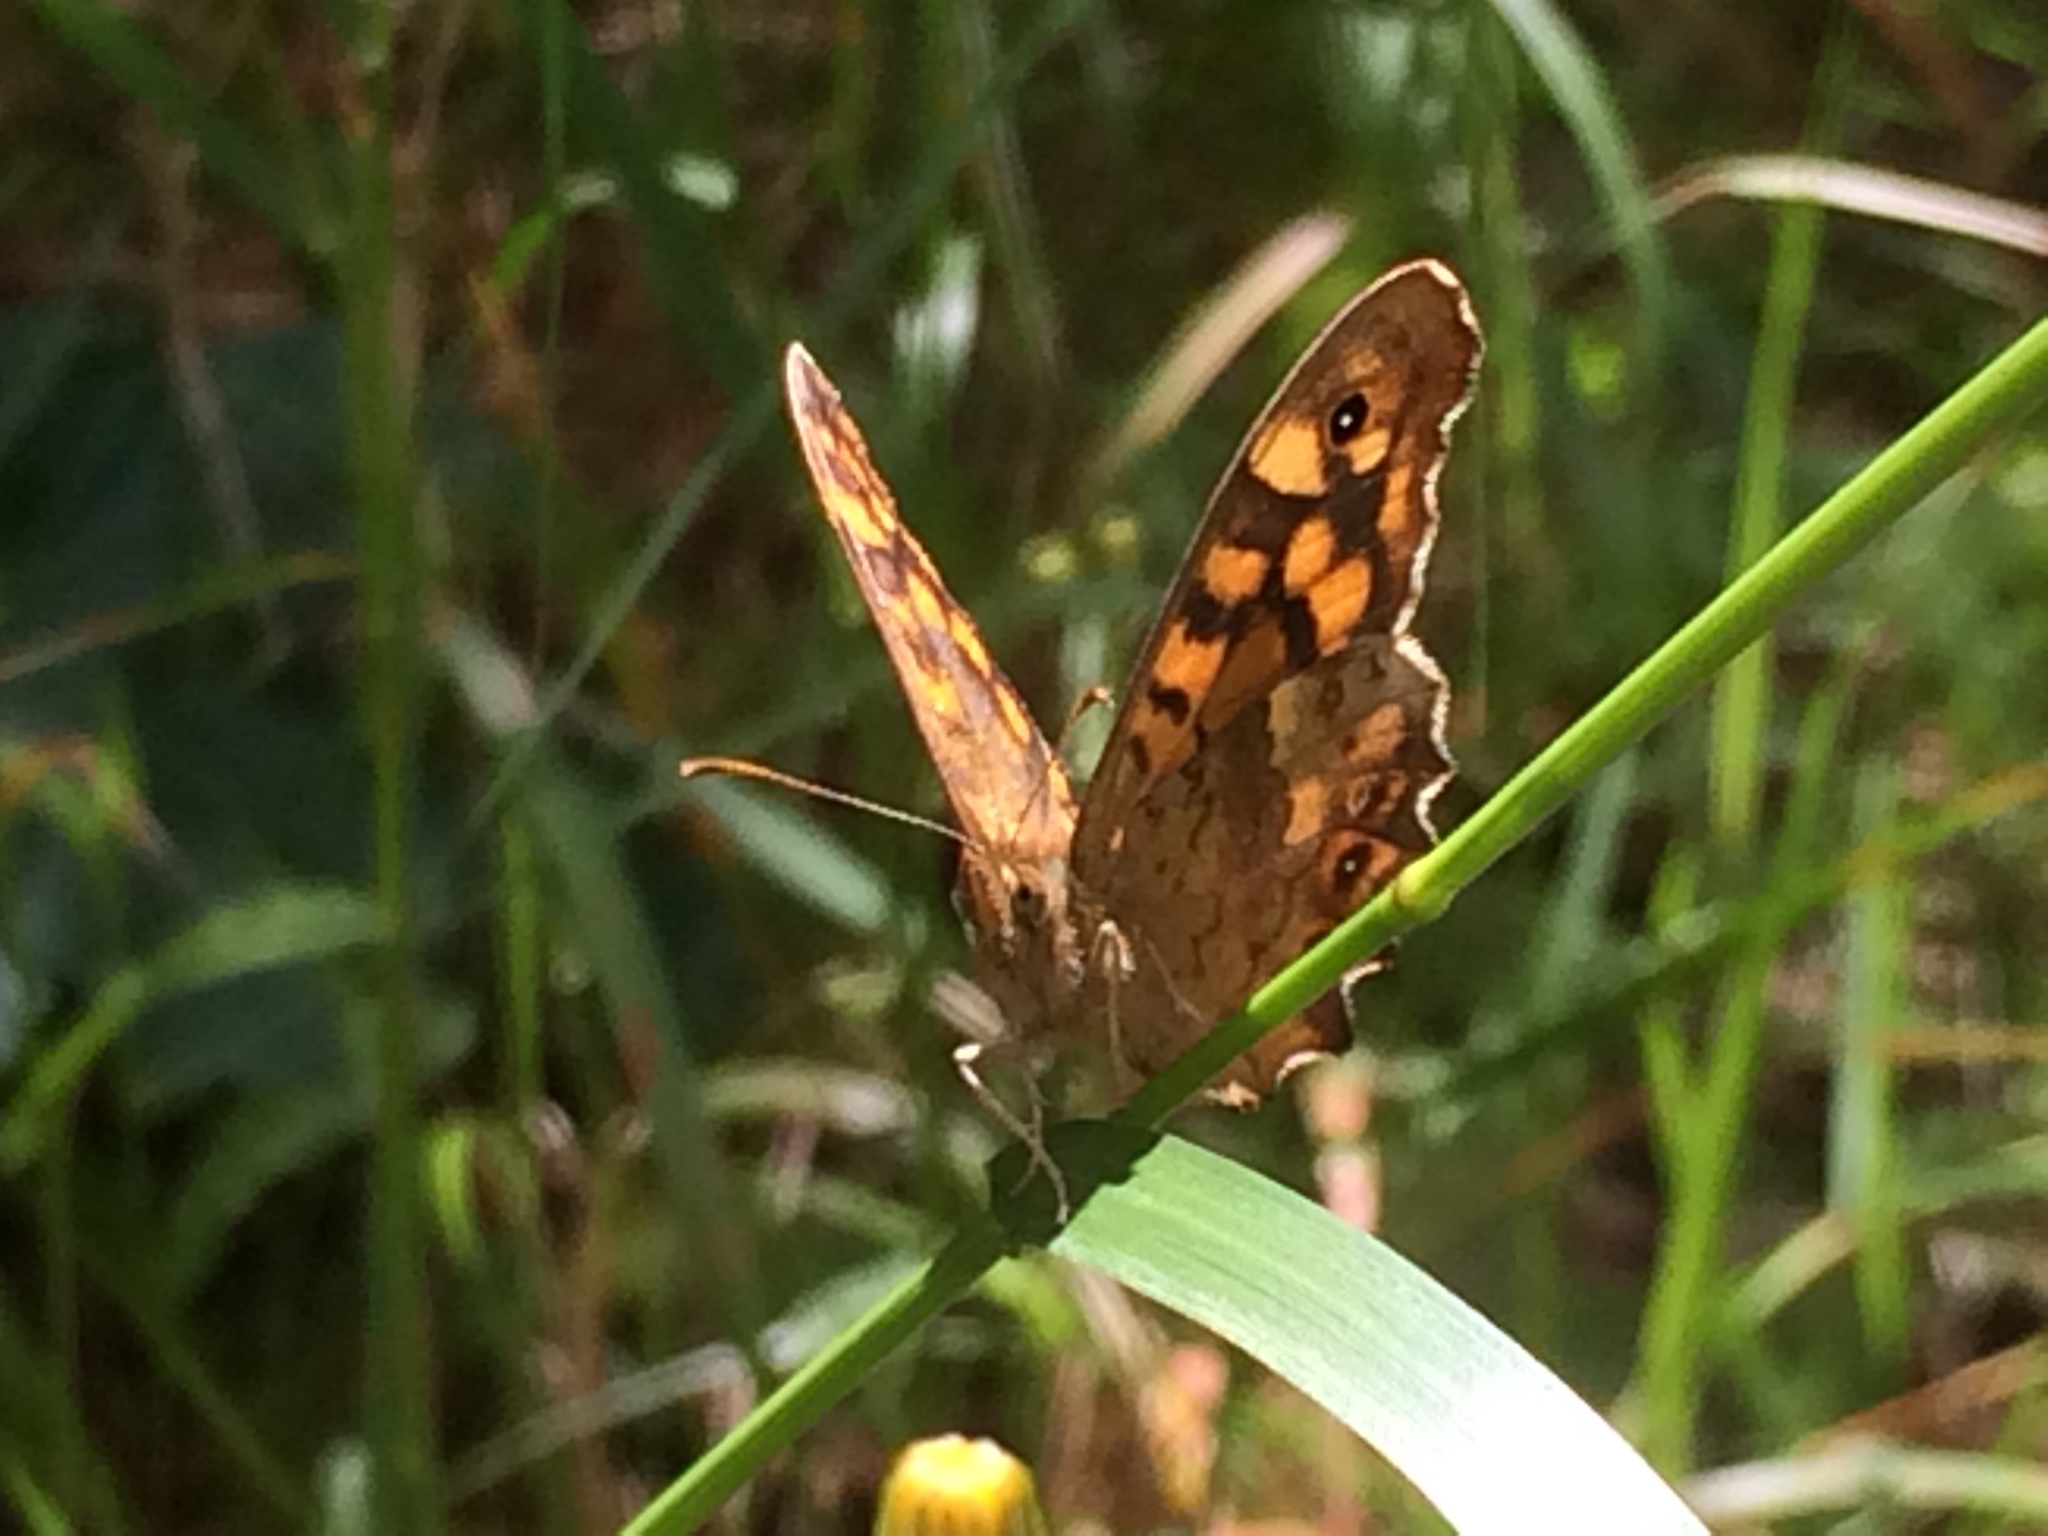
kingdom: Animalia
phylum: Arthropoda
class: Insecta
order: Lepidoptera
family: Nymphalidae
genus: Pararge
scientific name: Pararge aegeria
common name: Speckled wood
